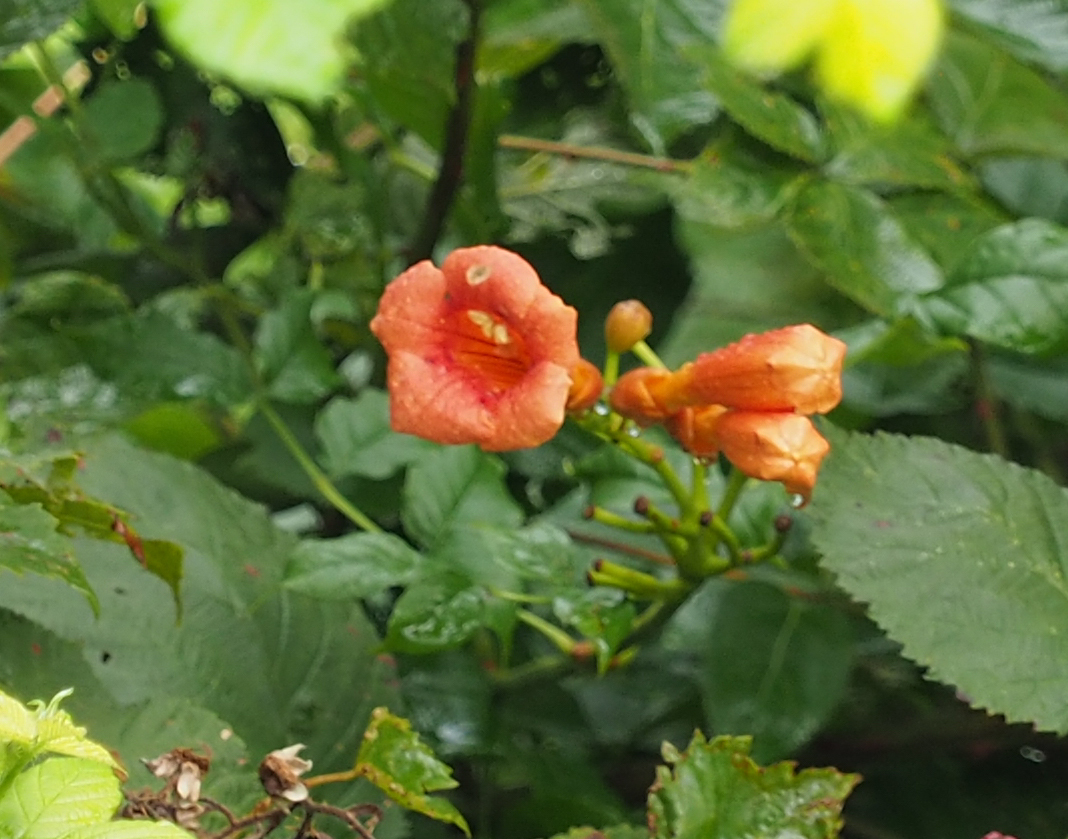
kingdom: Plantae
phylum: Tracheophyta
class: Magnoliopsida
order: Lamiales
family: Bignoniaceae
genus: Campsis
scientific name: Campsis radicans
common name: Trumpet-creeper
